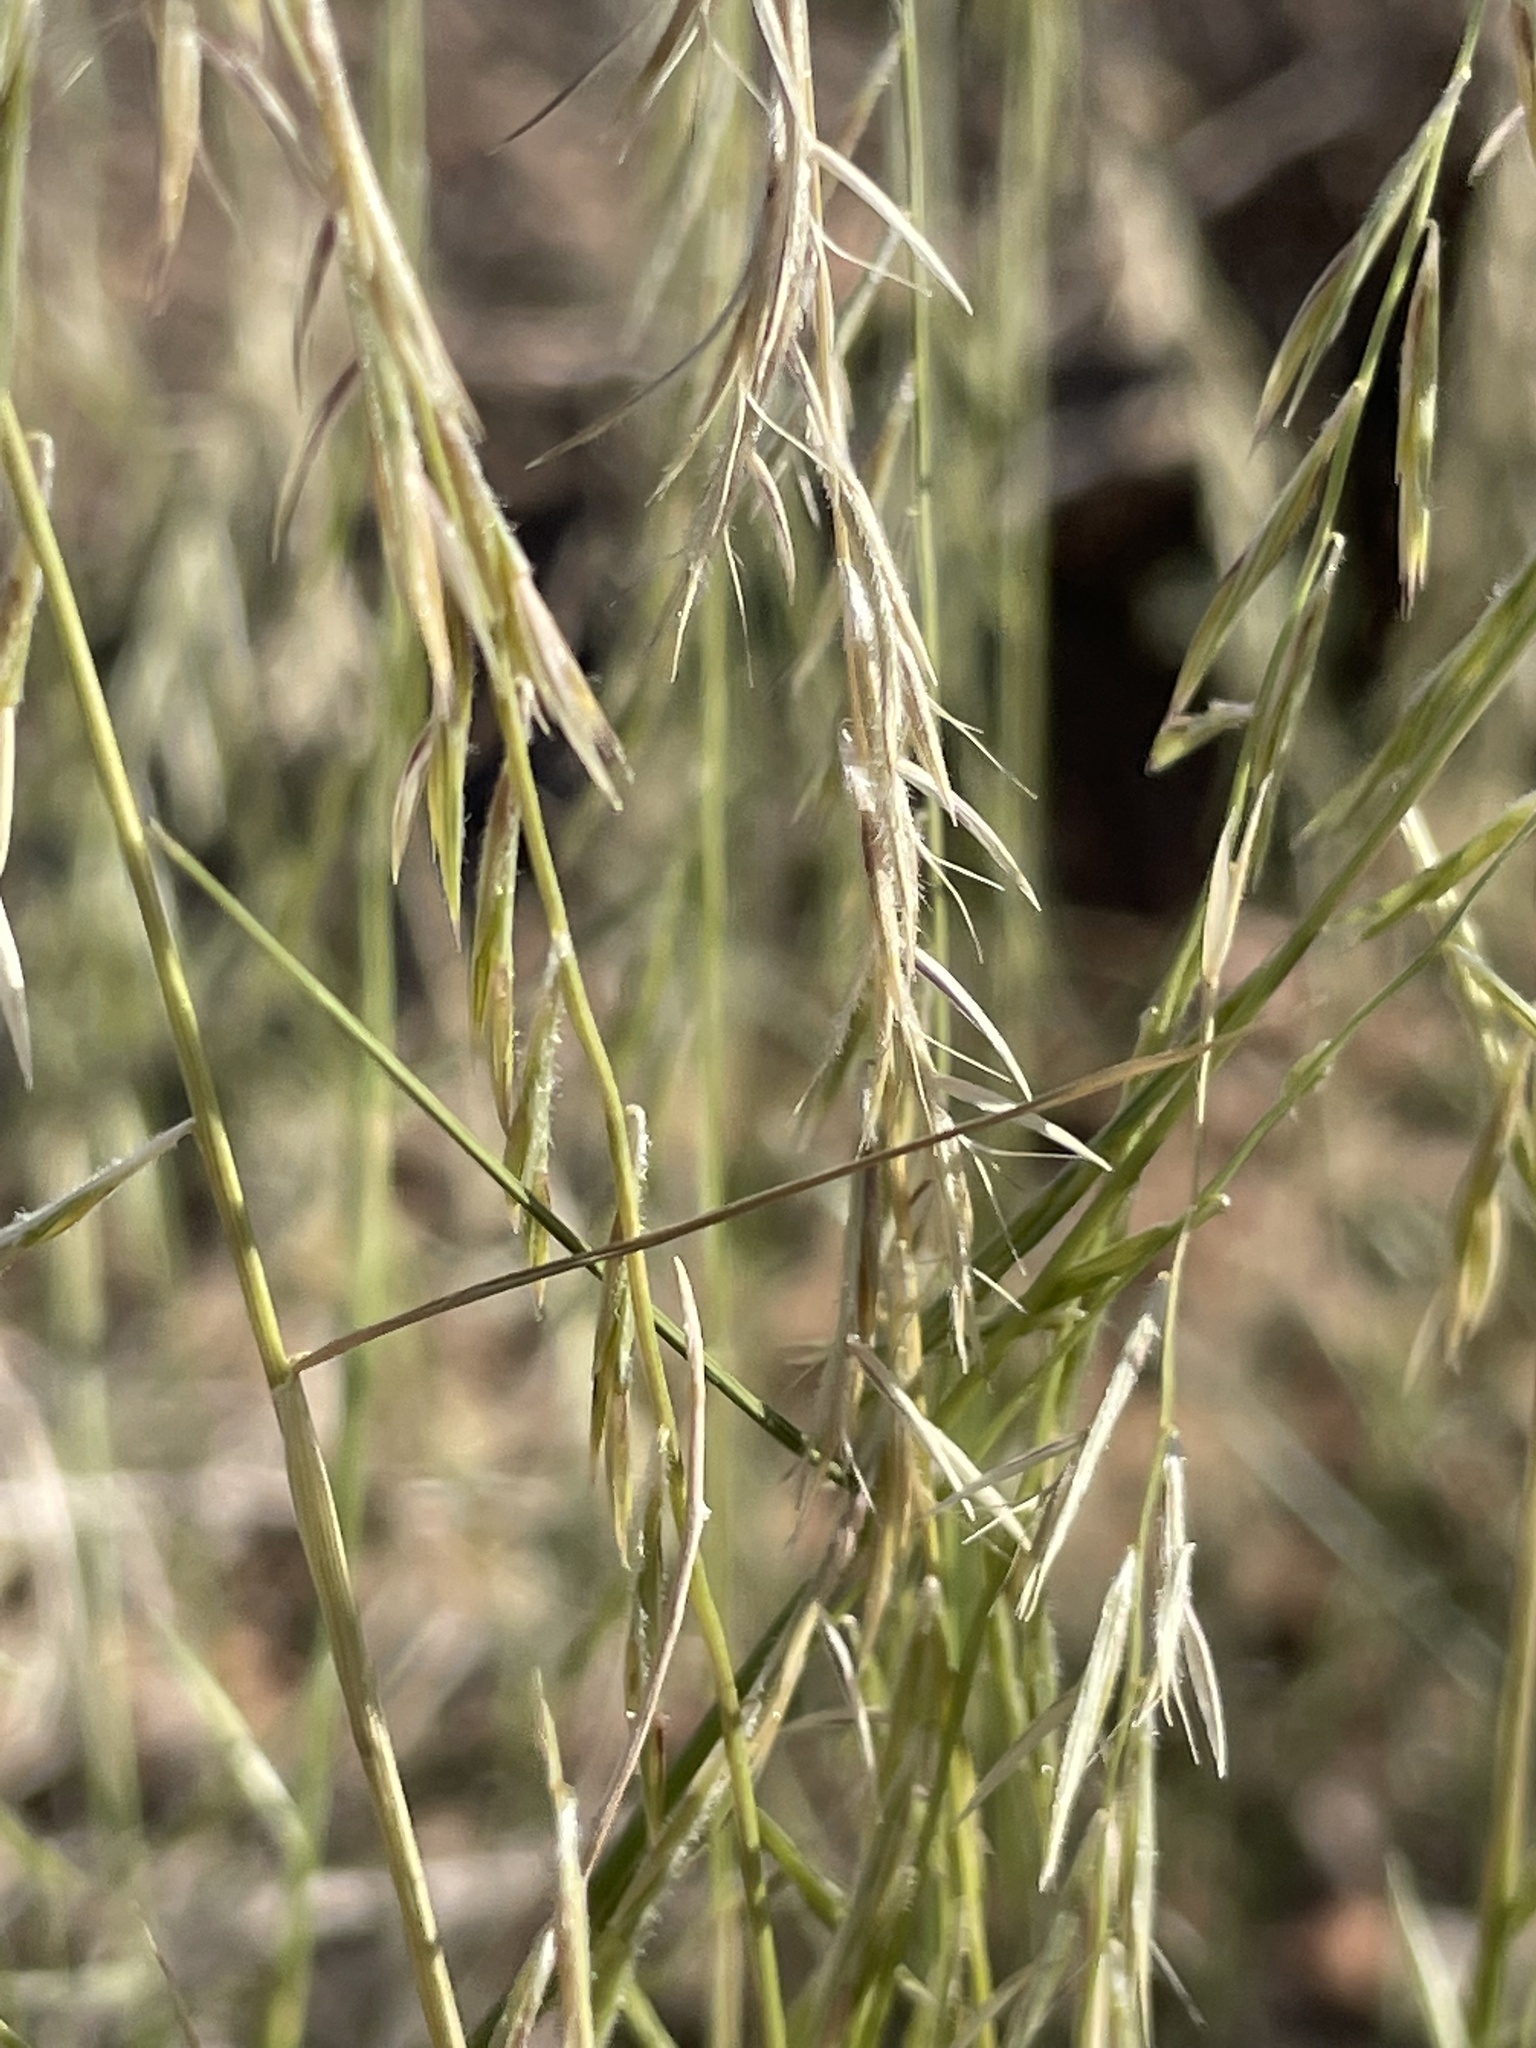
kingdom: Plantae
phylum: Tracheophyta
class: Liliopsida
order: Poales
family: Poaceae
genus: Bouteloua
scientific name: Bouteloua aristidoides
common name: Needle grama
